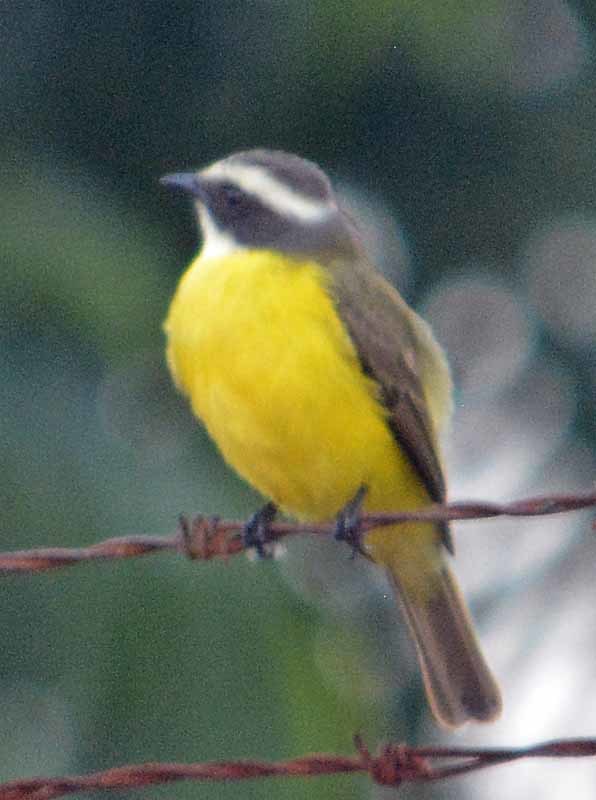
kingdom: Animalia
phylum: Chordata
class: Aves
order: Passeriformes
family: Tyrannidae
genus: Myiozetetes
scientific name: Myiozetetes similis
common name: Social flycatcher
